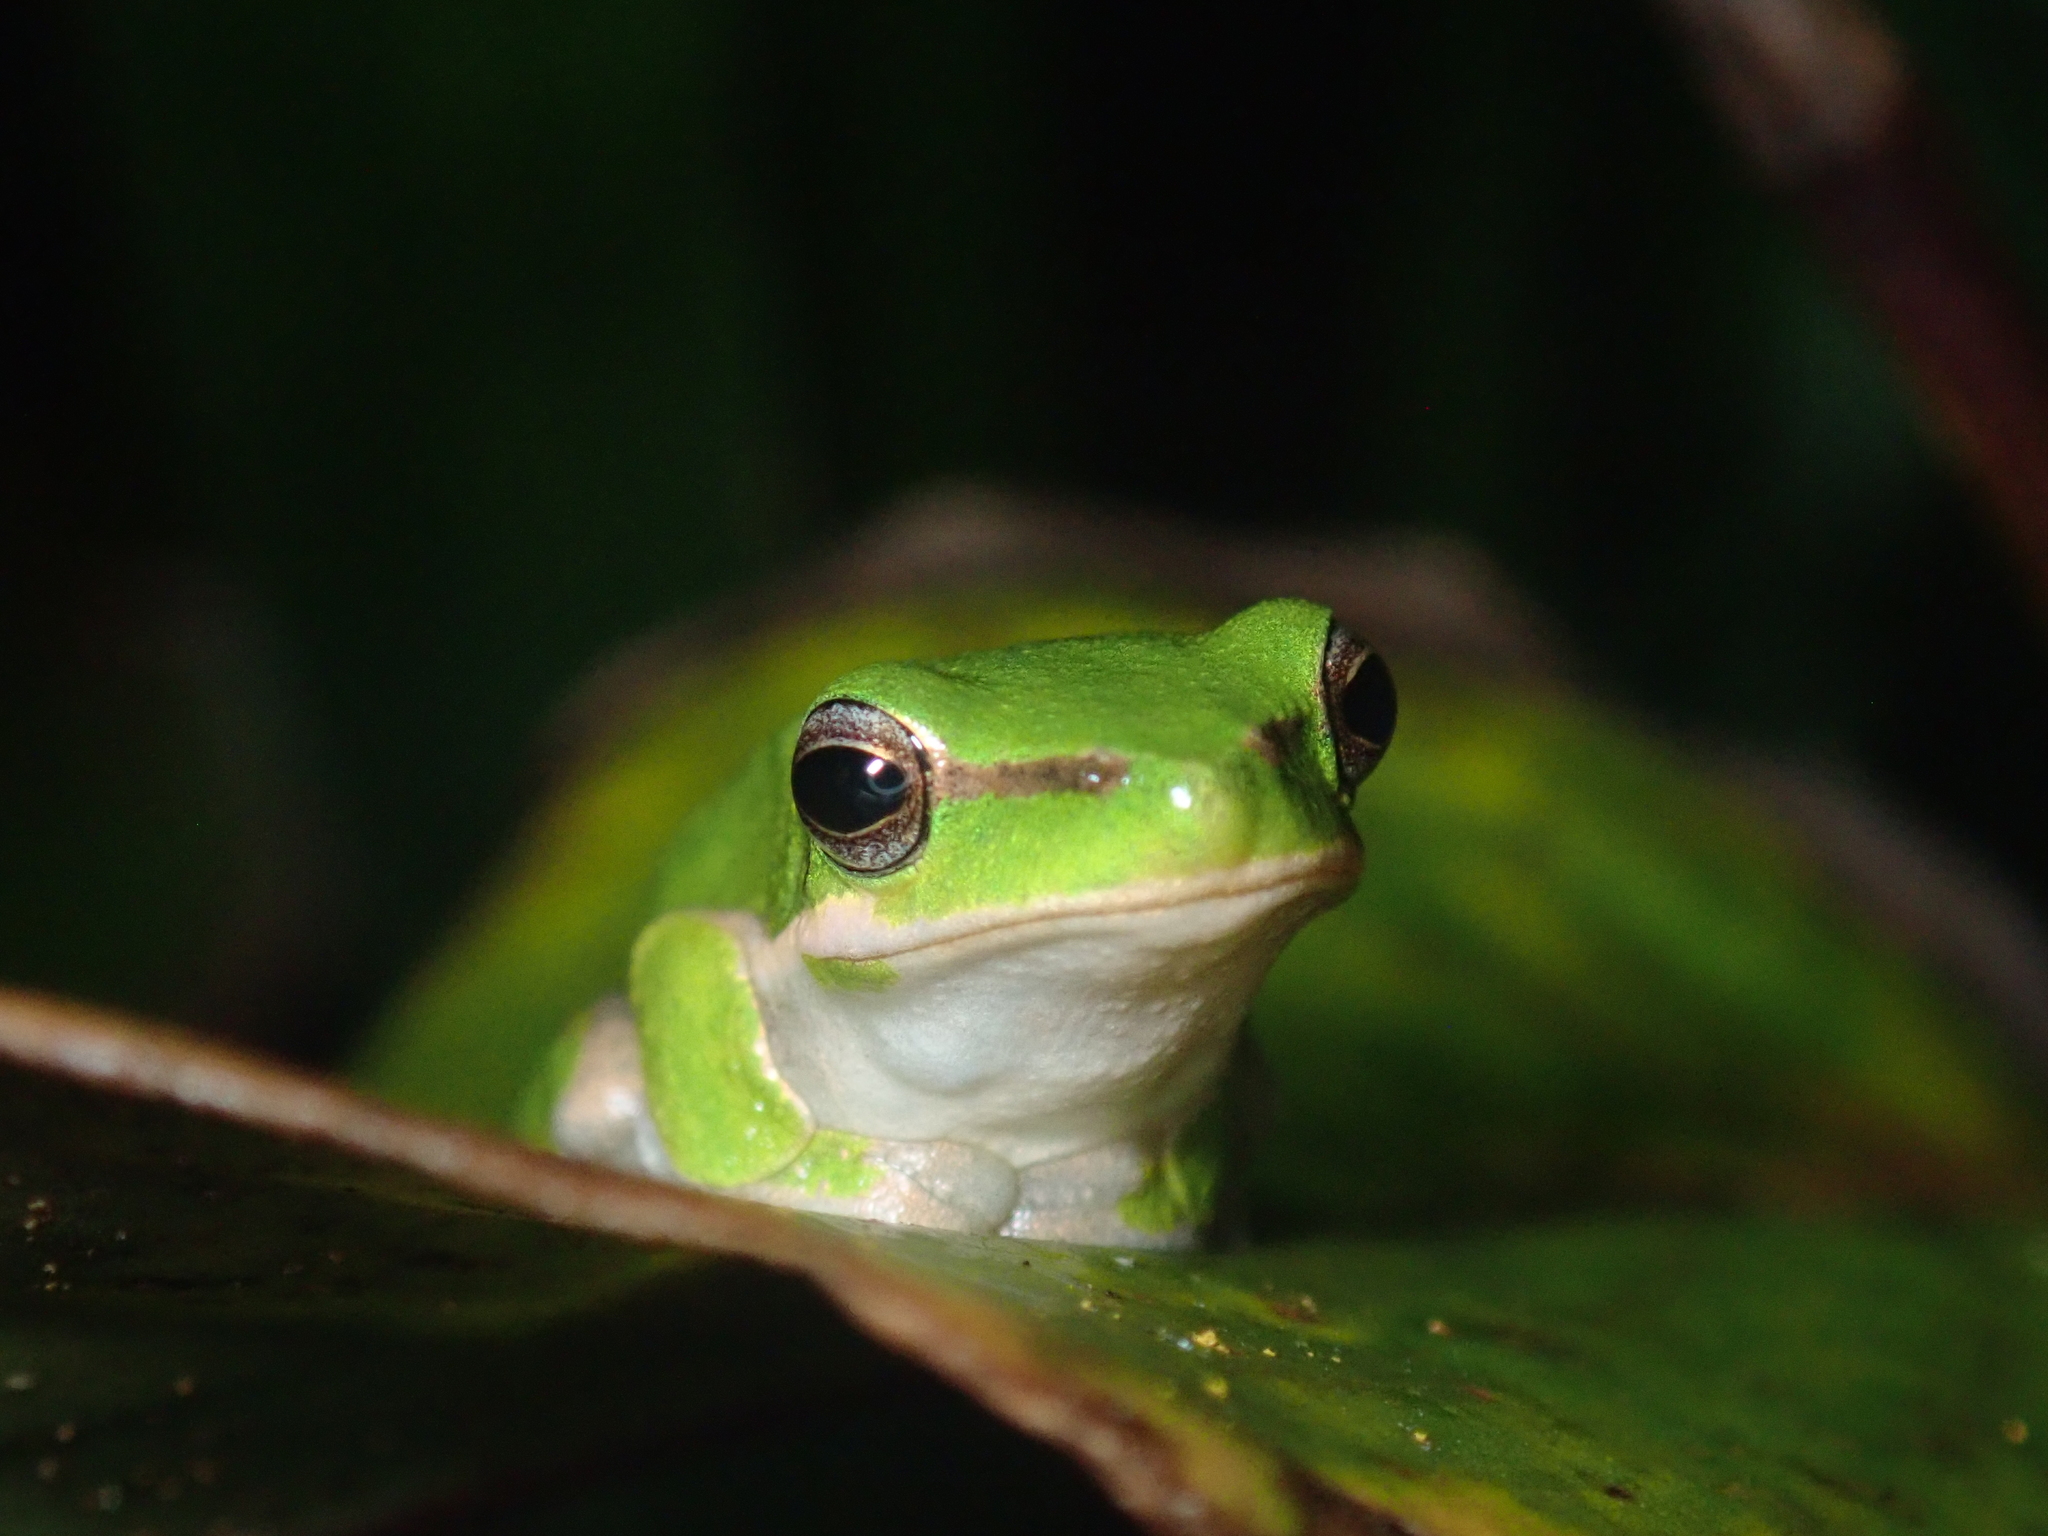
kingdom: Animalia
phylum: Chordata
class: Amphibia
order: Anura
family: Pelodryadidae
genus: Litoria
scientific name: Litoria fallax
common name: Eastern dwarf treefrog
